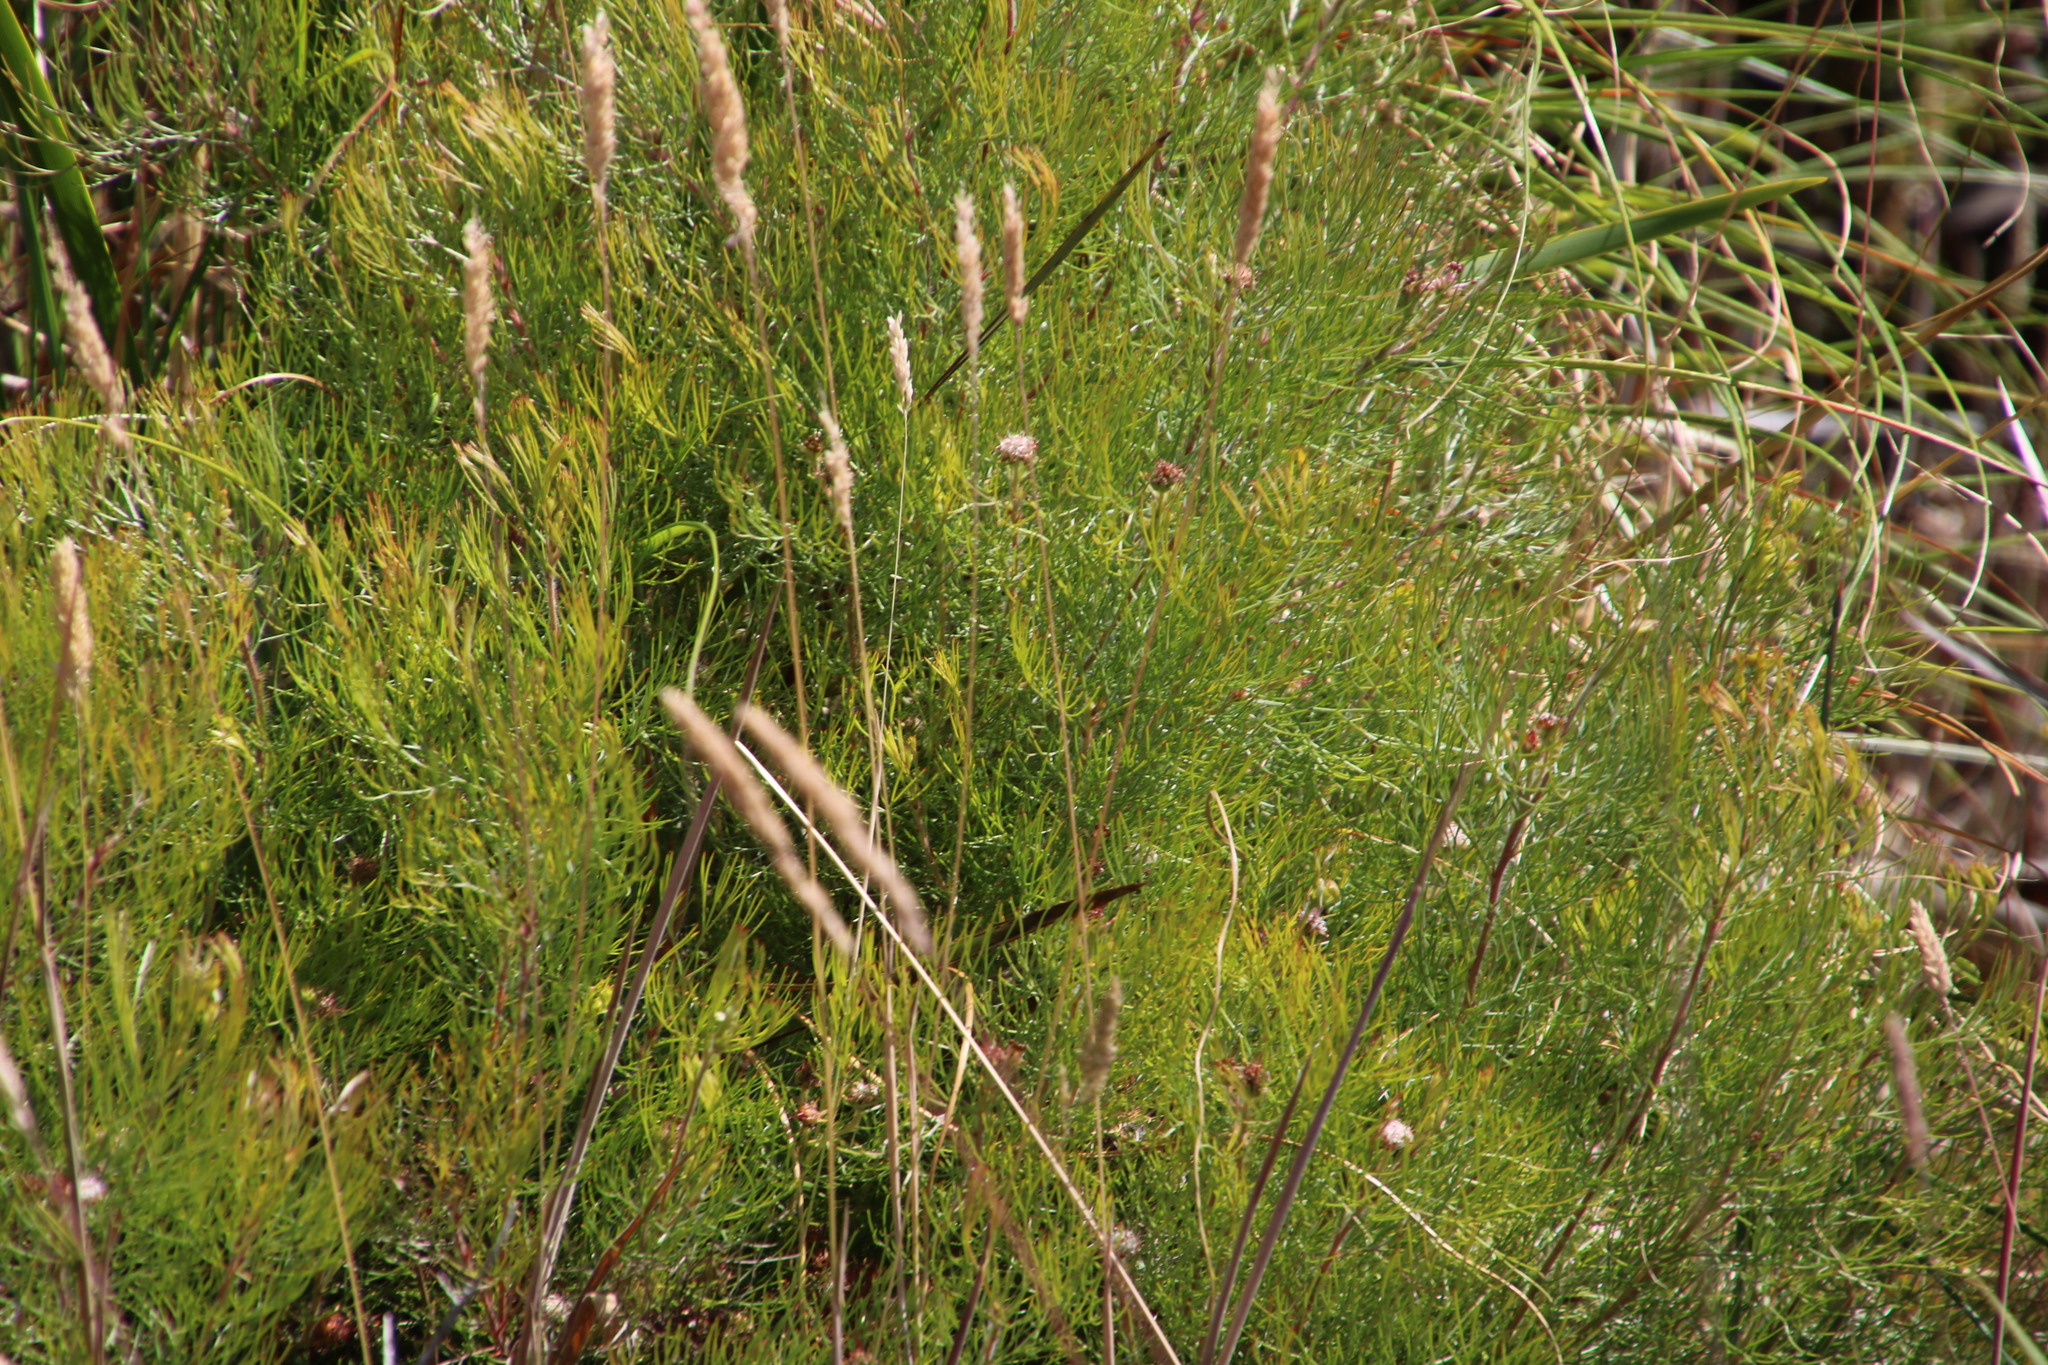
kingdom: Plantae
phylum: Tracheophyta
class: Magnoliopsida
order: Proteales
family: Proteaceae
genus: Serruria
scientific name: Serruria fasciflora
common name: Common pin spiderhead
